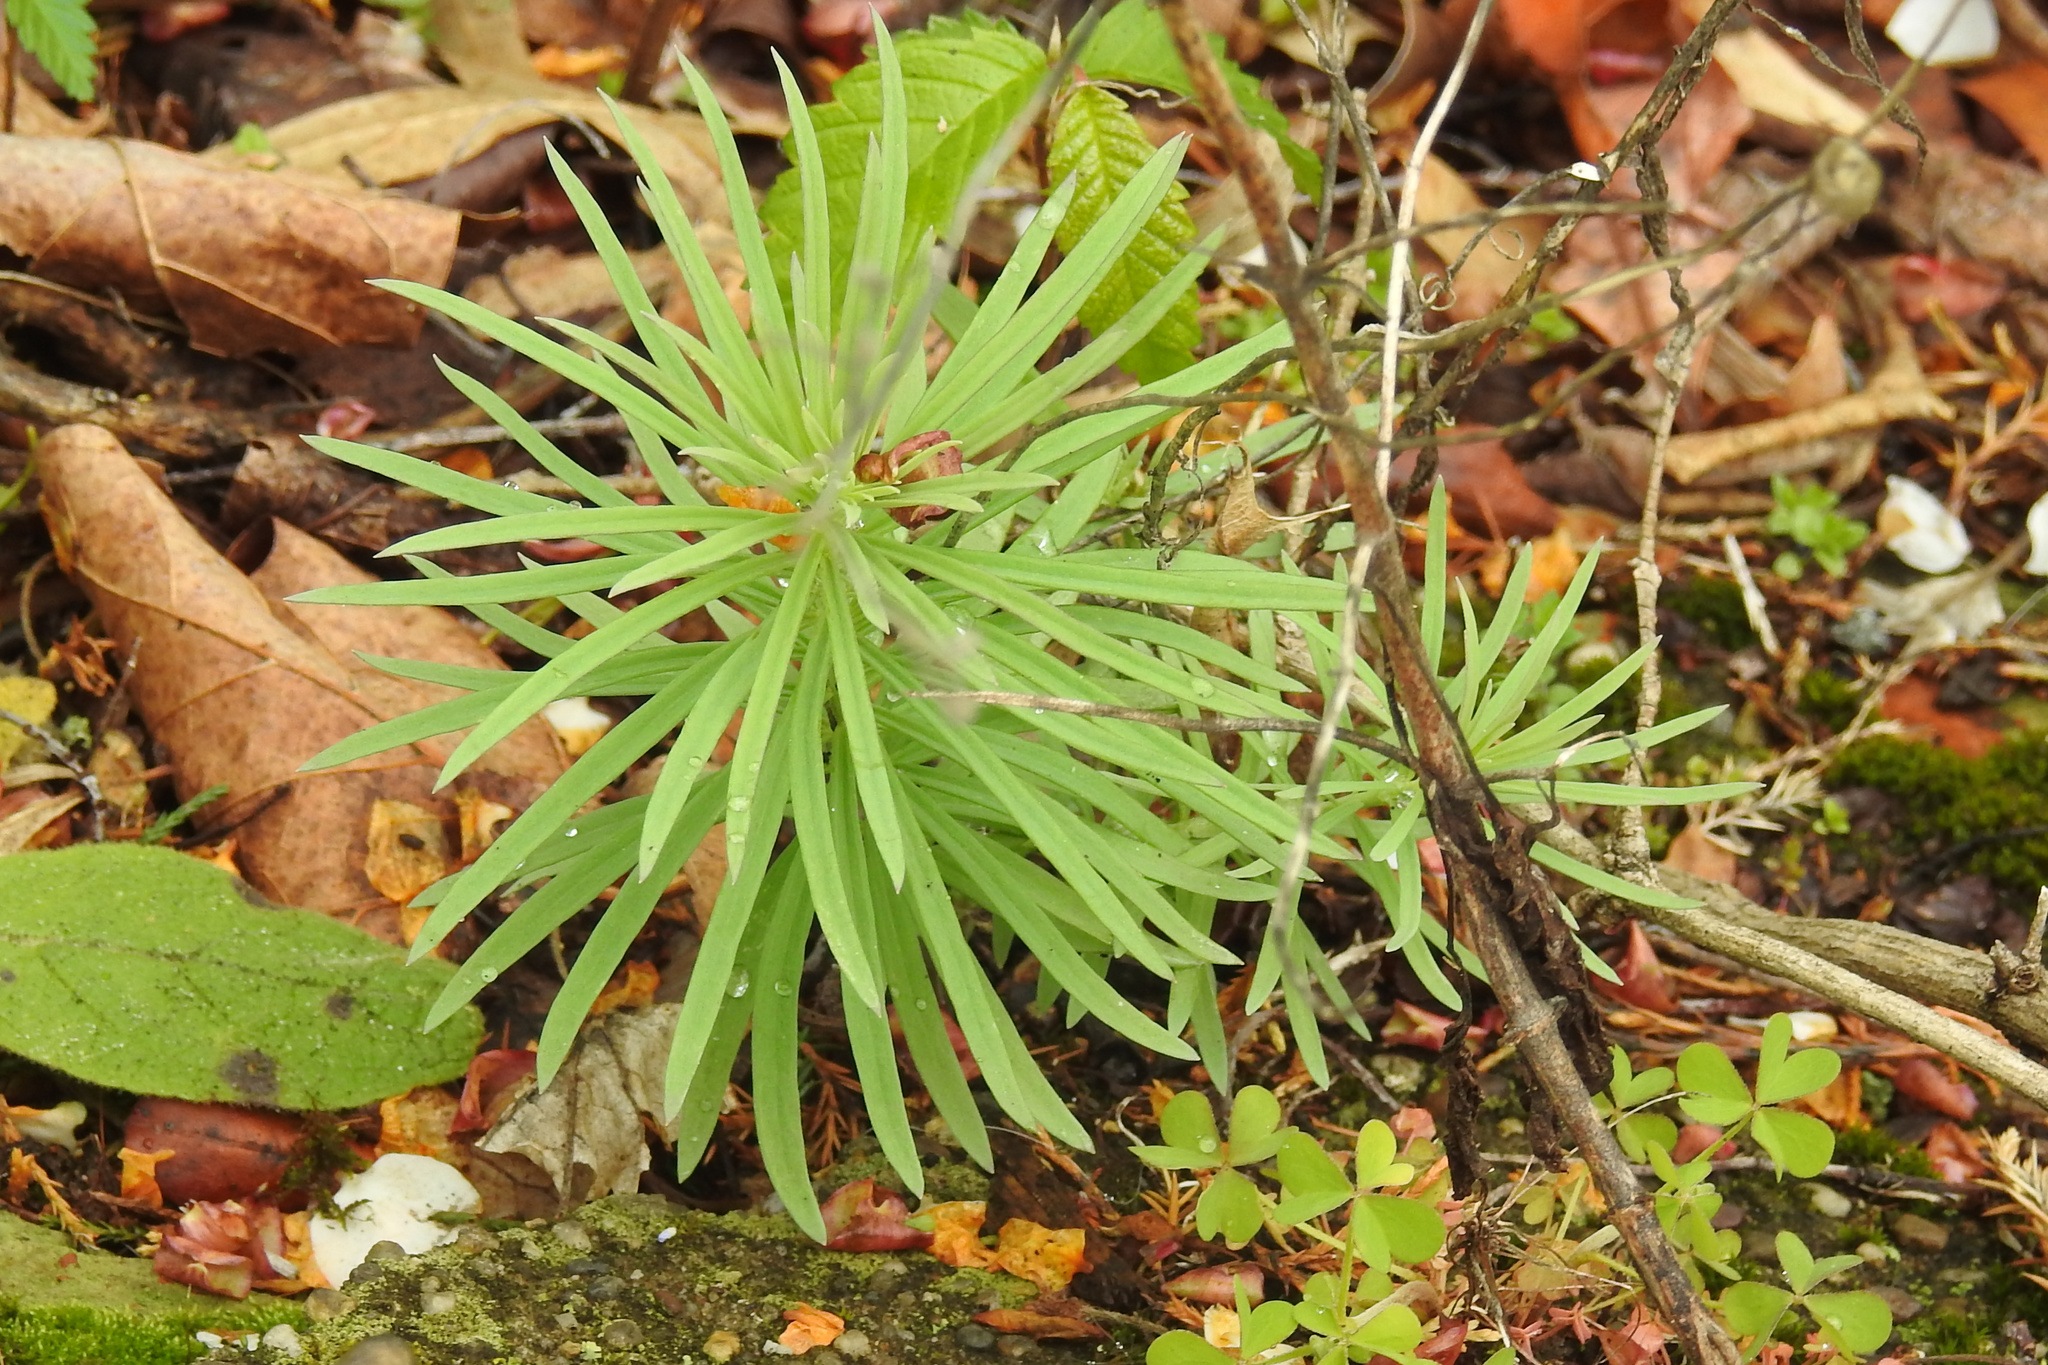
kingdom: Plantae
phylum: Tracheophyta
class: Magnoliopsida
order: Lamiales
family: Plantaginaceae
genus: Linaria
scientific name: Linaria vulgaris
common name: Butter and eggs
